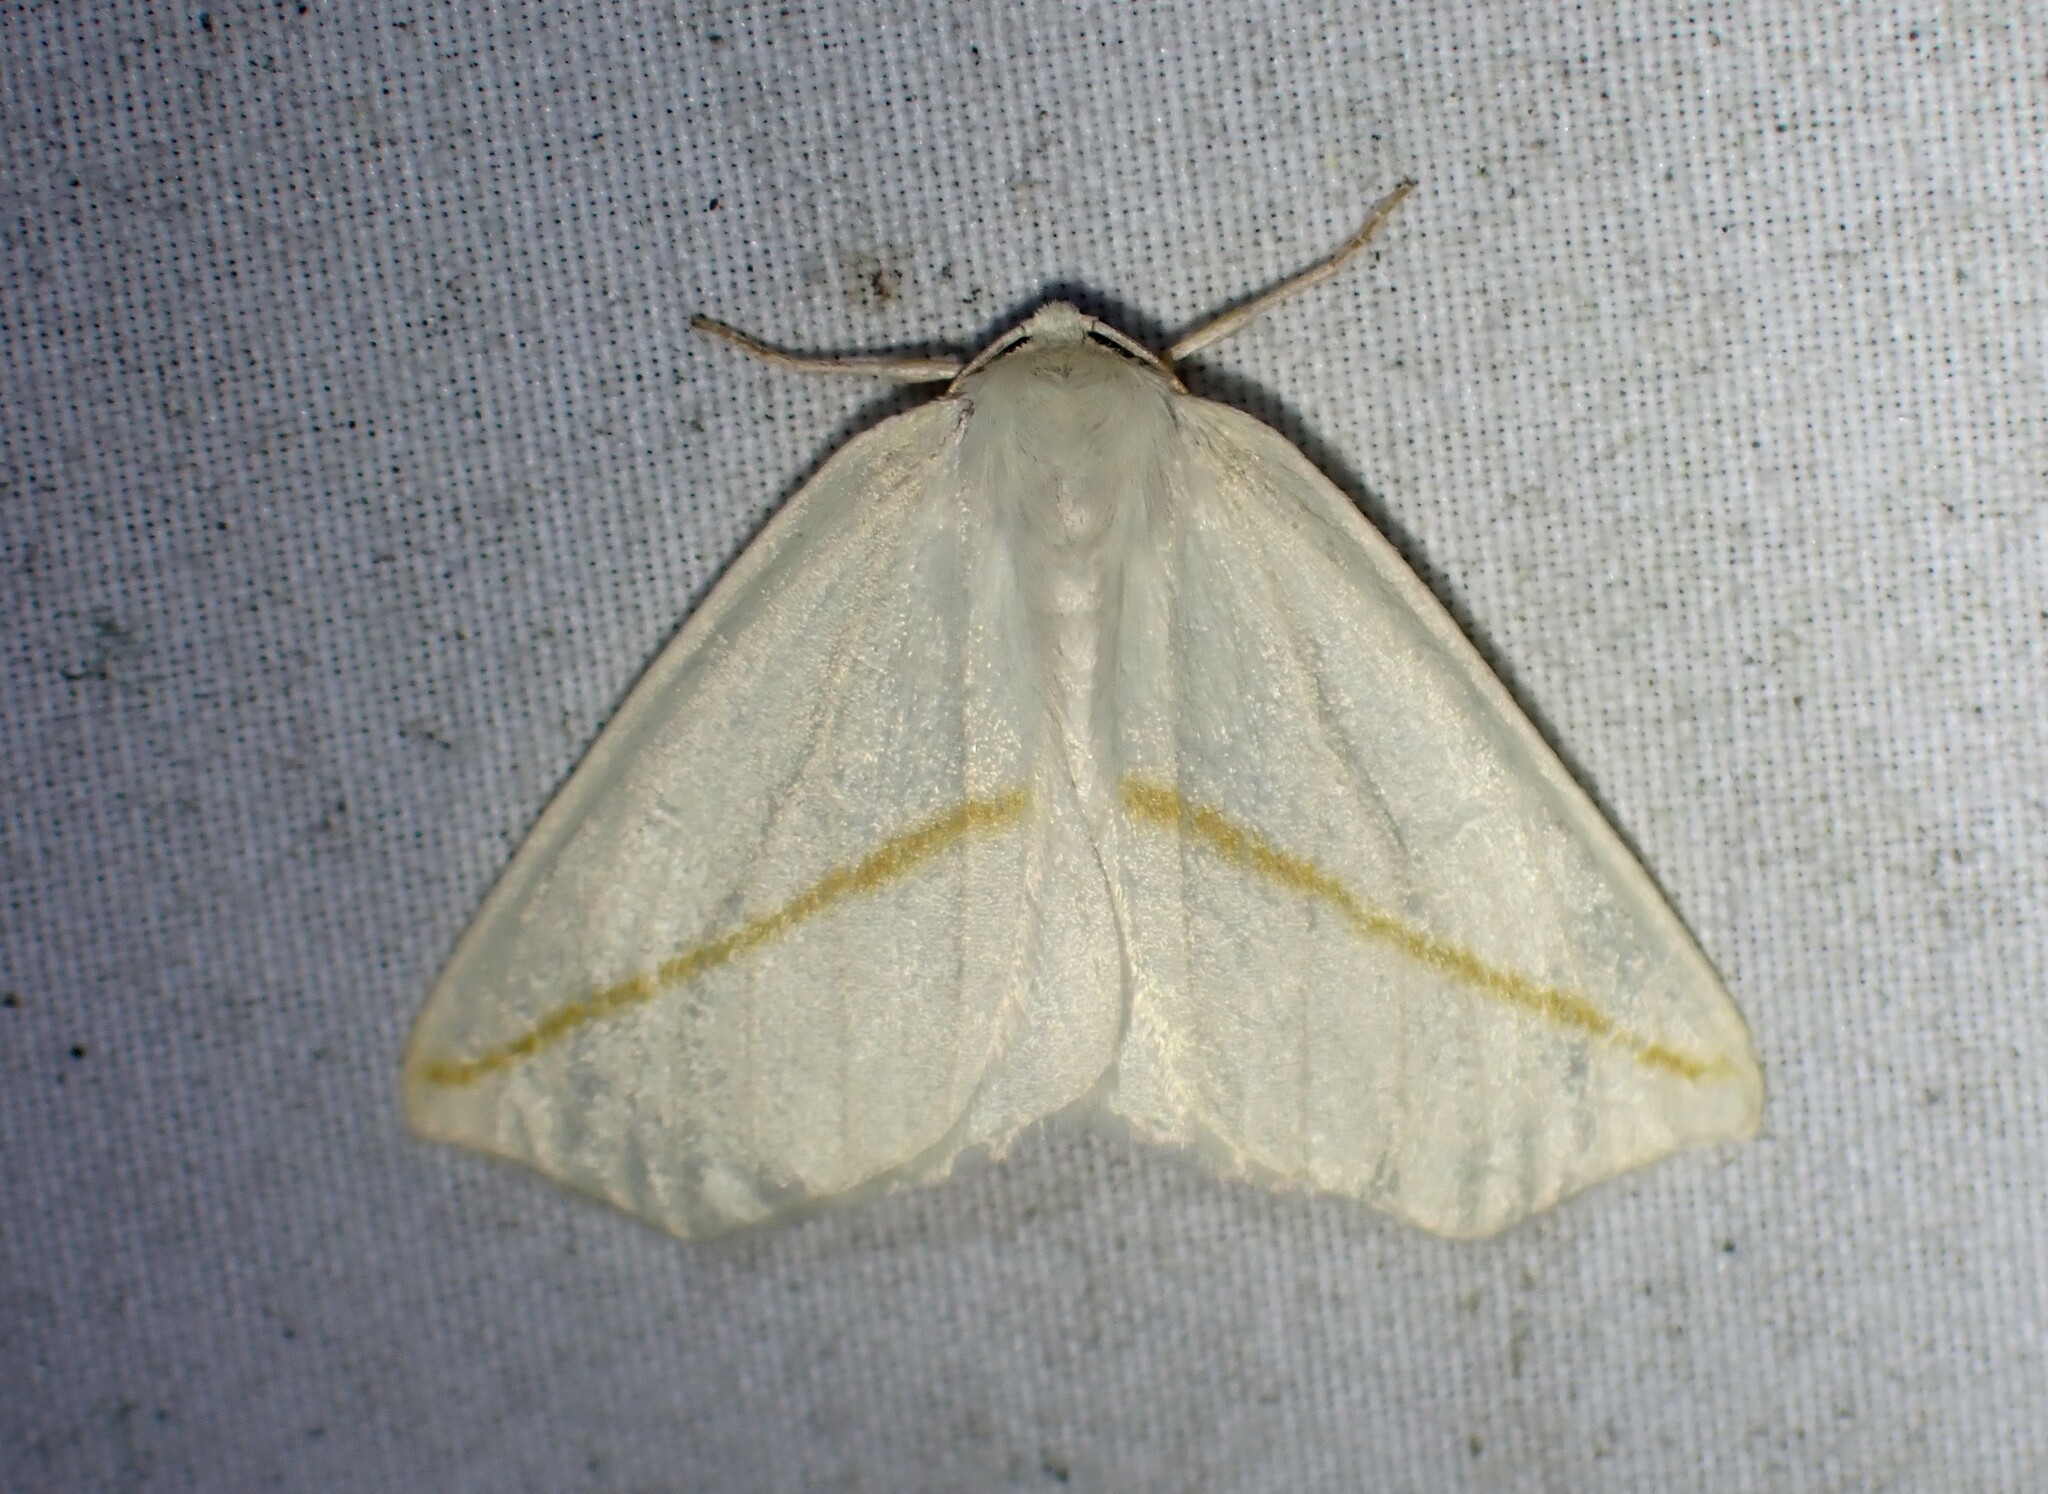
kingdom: Animalia
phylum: Arthropoda
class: Insecta
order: Lepidoptera
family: Geometridae
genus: Tetracis
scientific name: Tetracis cachexiata
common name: White slant-line
